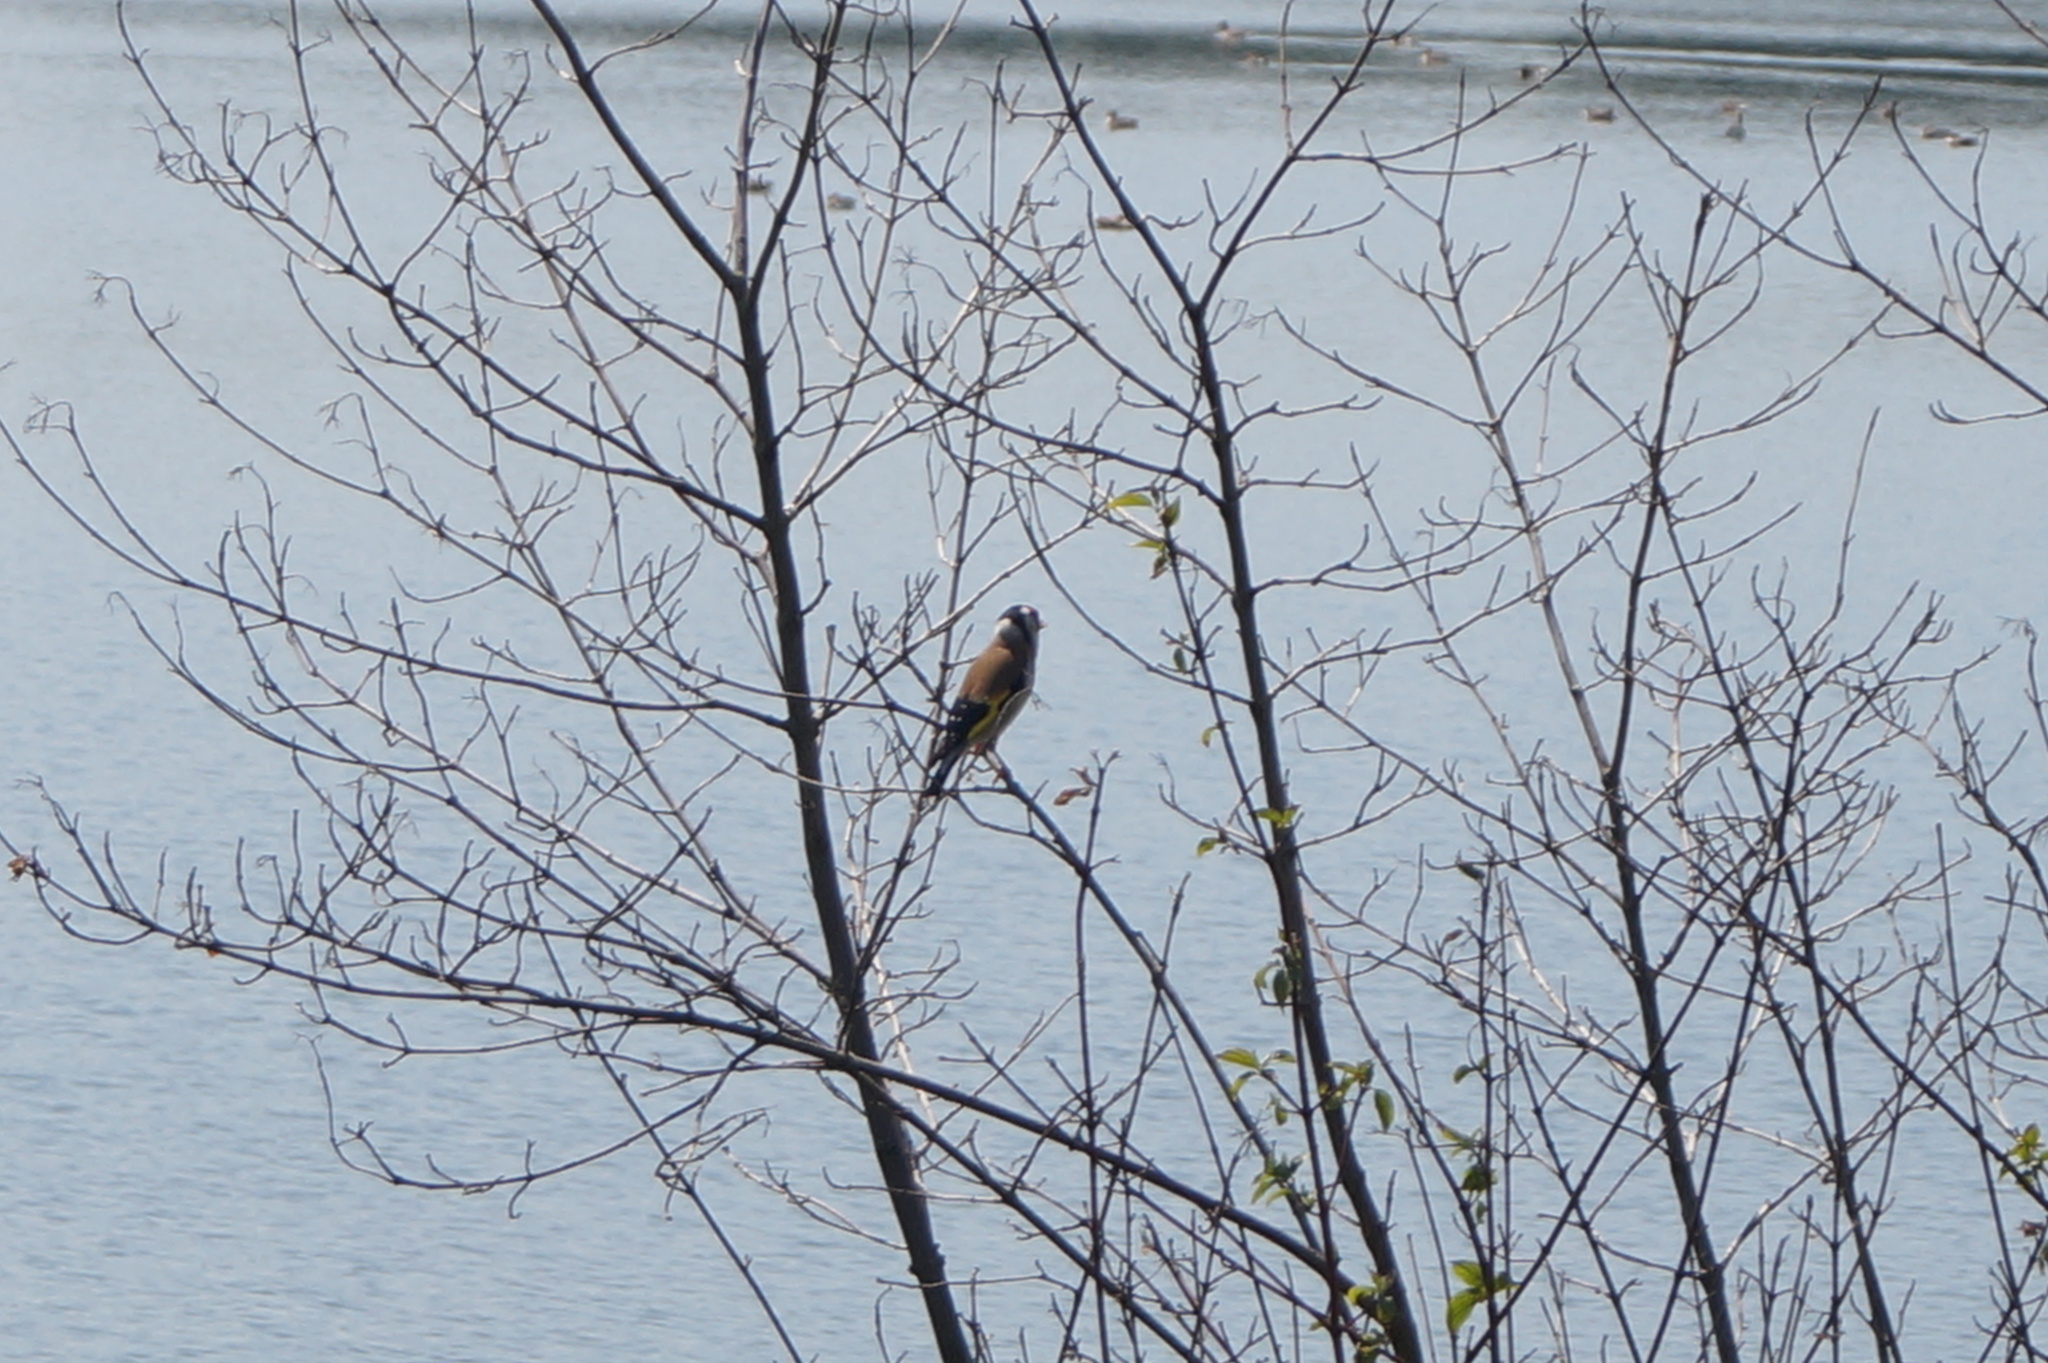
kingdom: Animalia
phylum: Chordata
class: Aves
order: Passeriformes
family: Fringillidae
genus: Carduelis
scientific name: Carduelis carduelis
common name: European goldfinch
